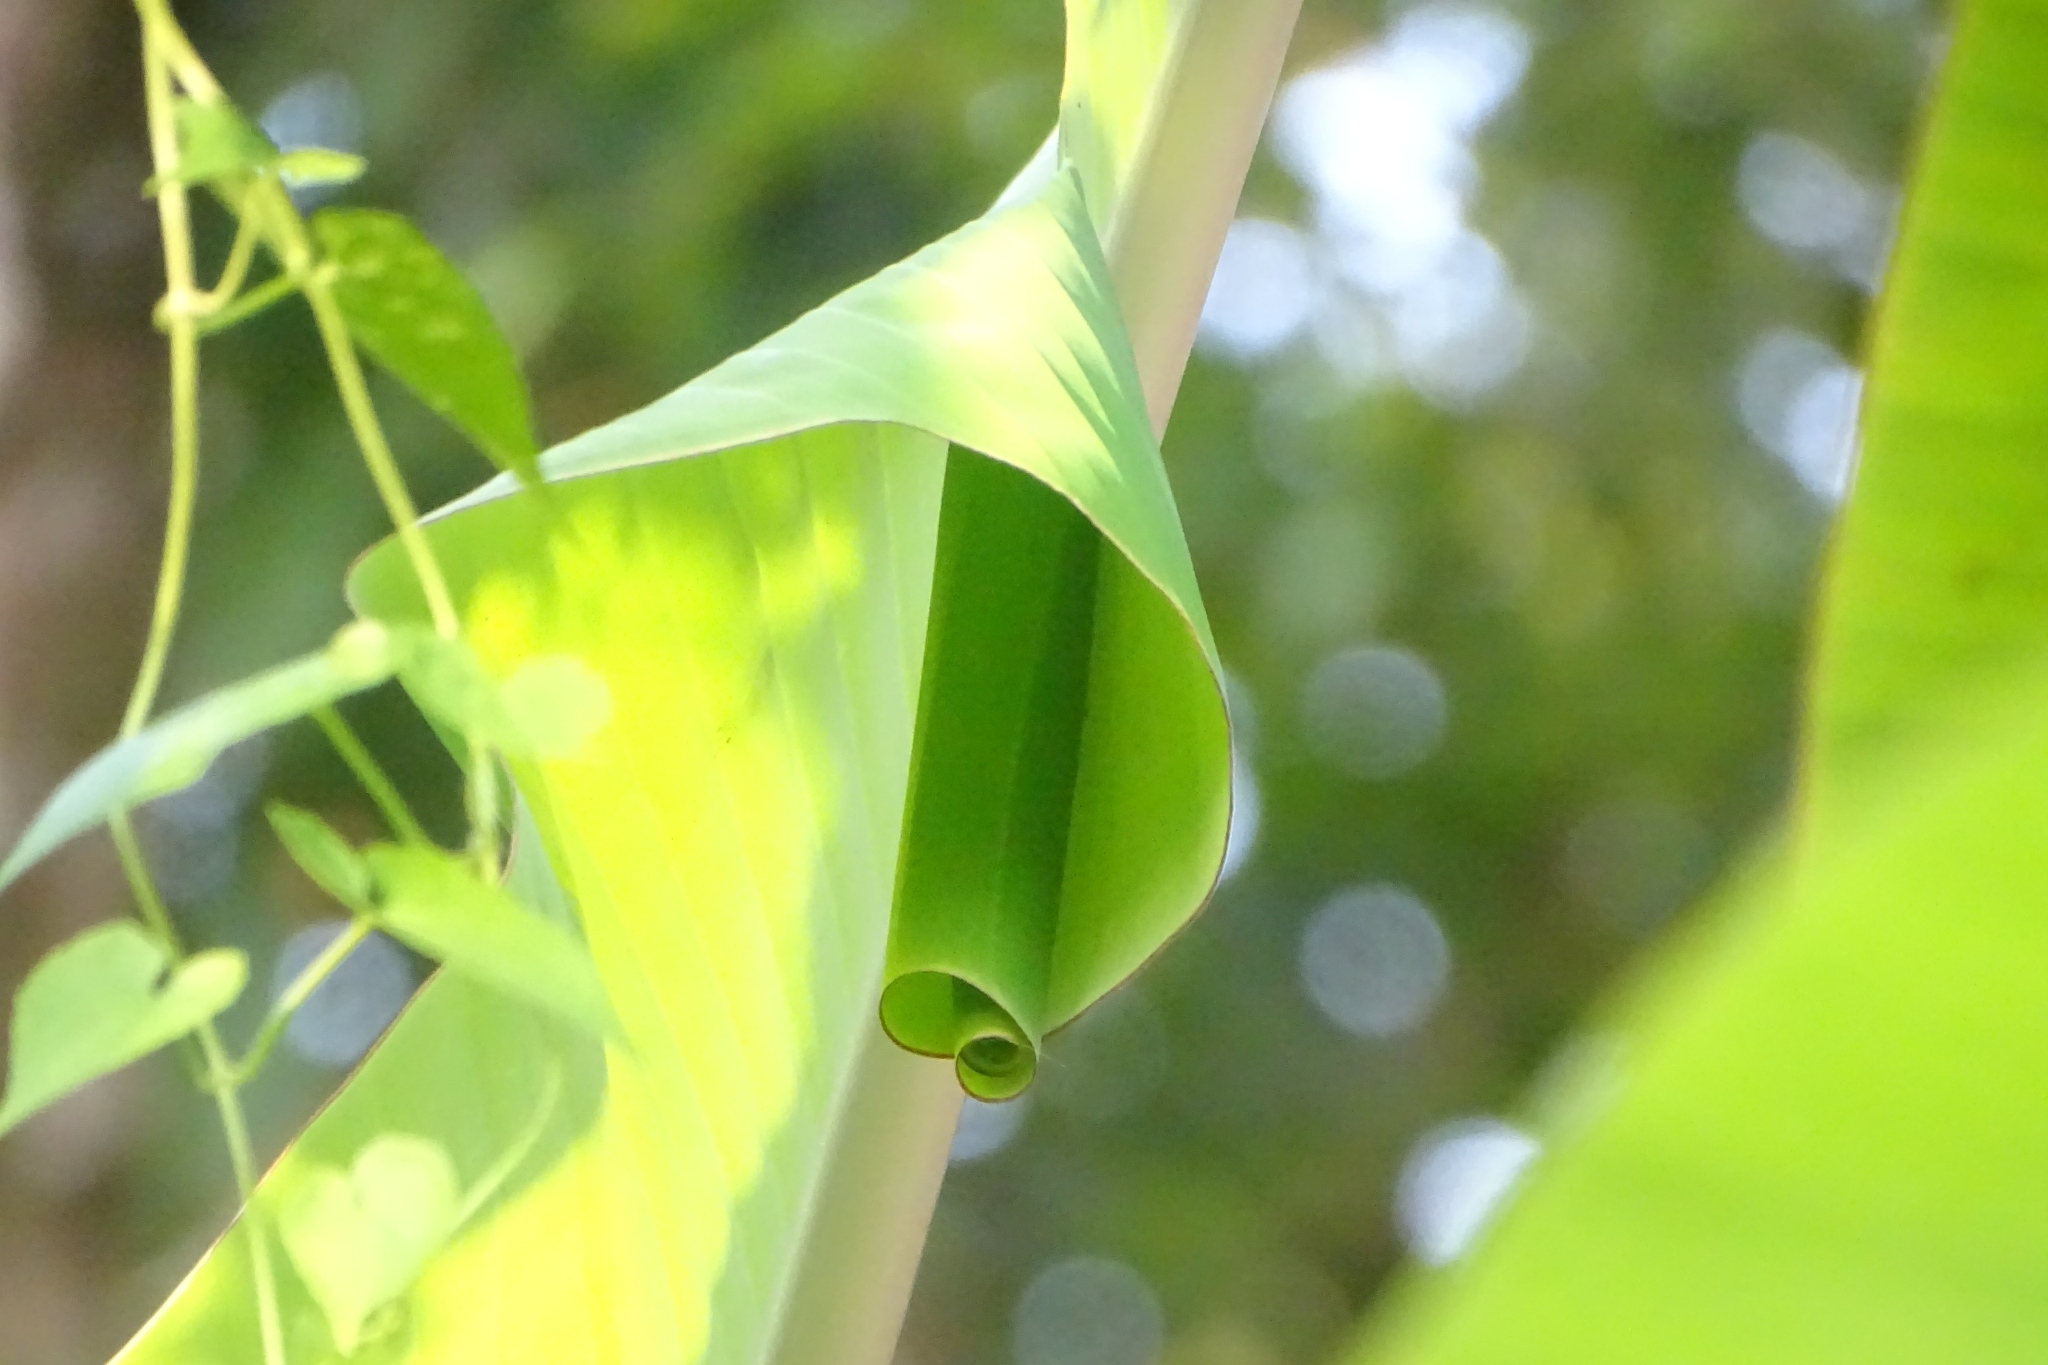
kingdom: Animalia
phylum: Arthropoda
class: Insecta
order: Lepidoptera
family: Hesperiidae
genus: Erionota
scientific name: Erionota torus
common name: Rounded palm-redeye
